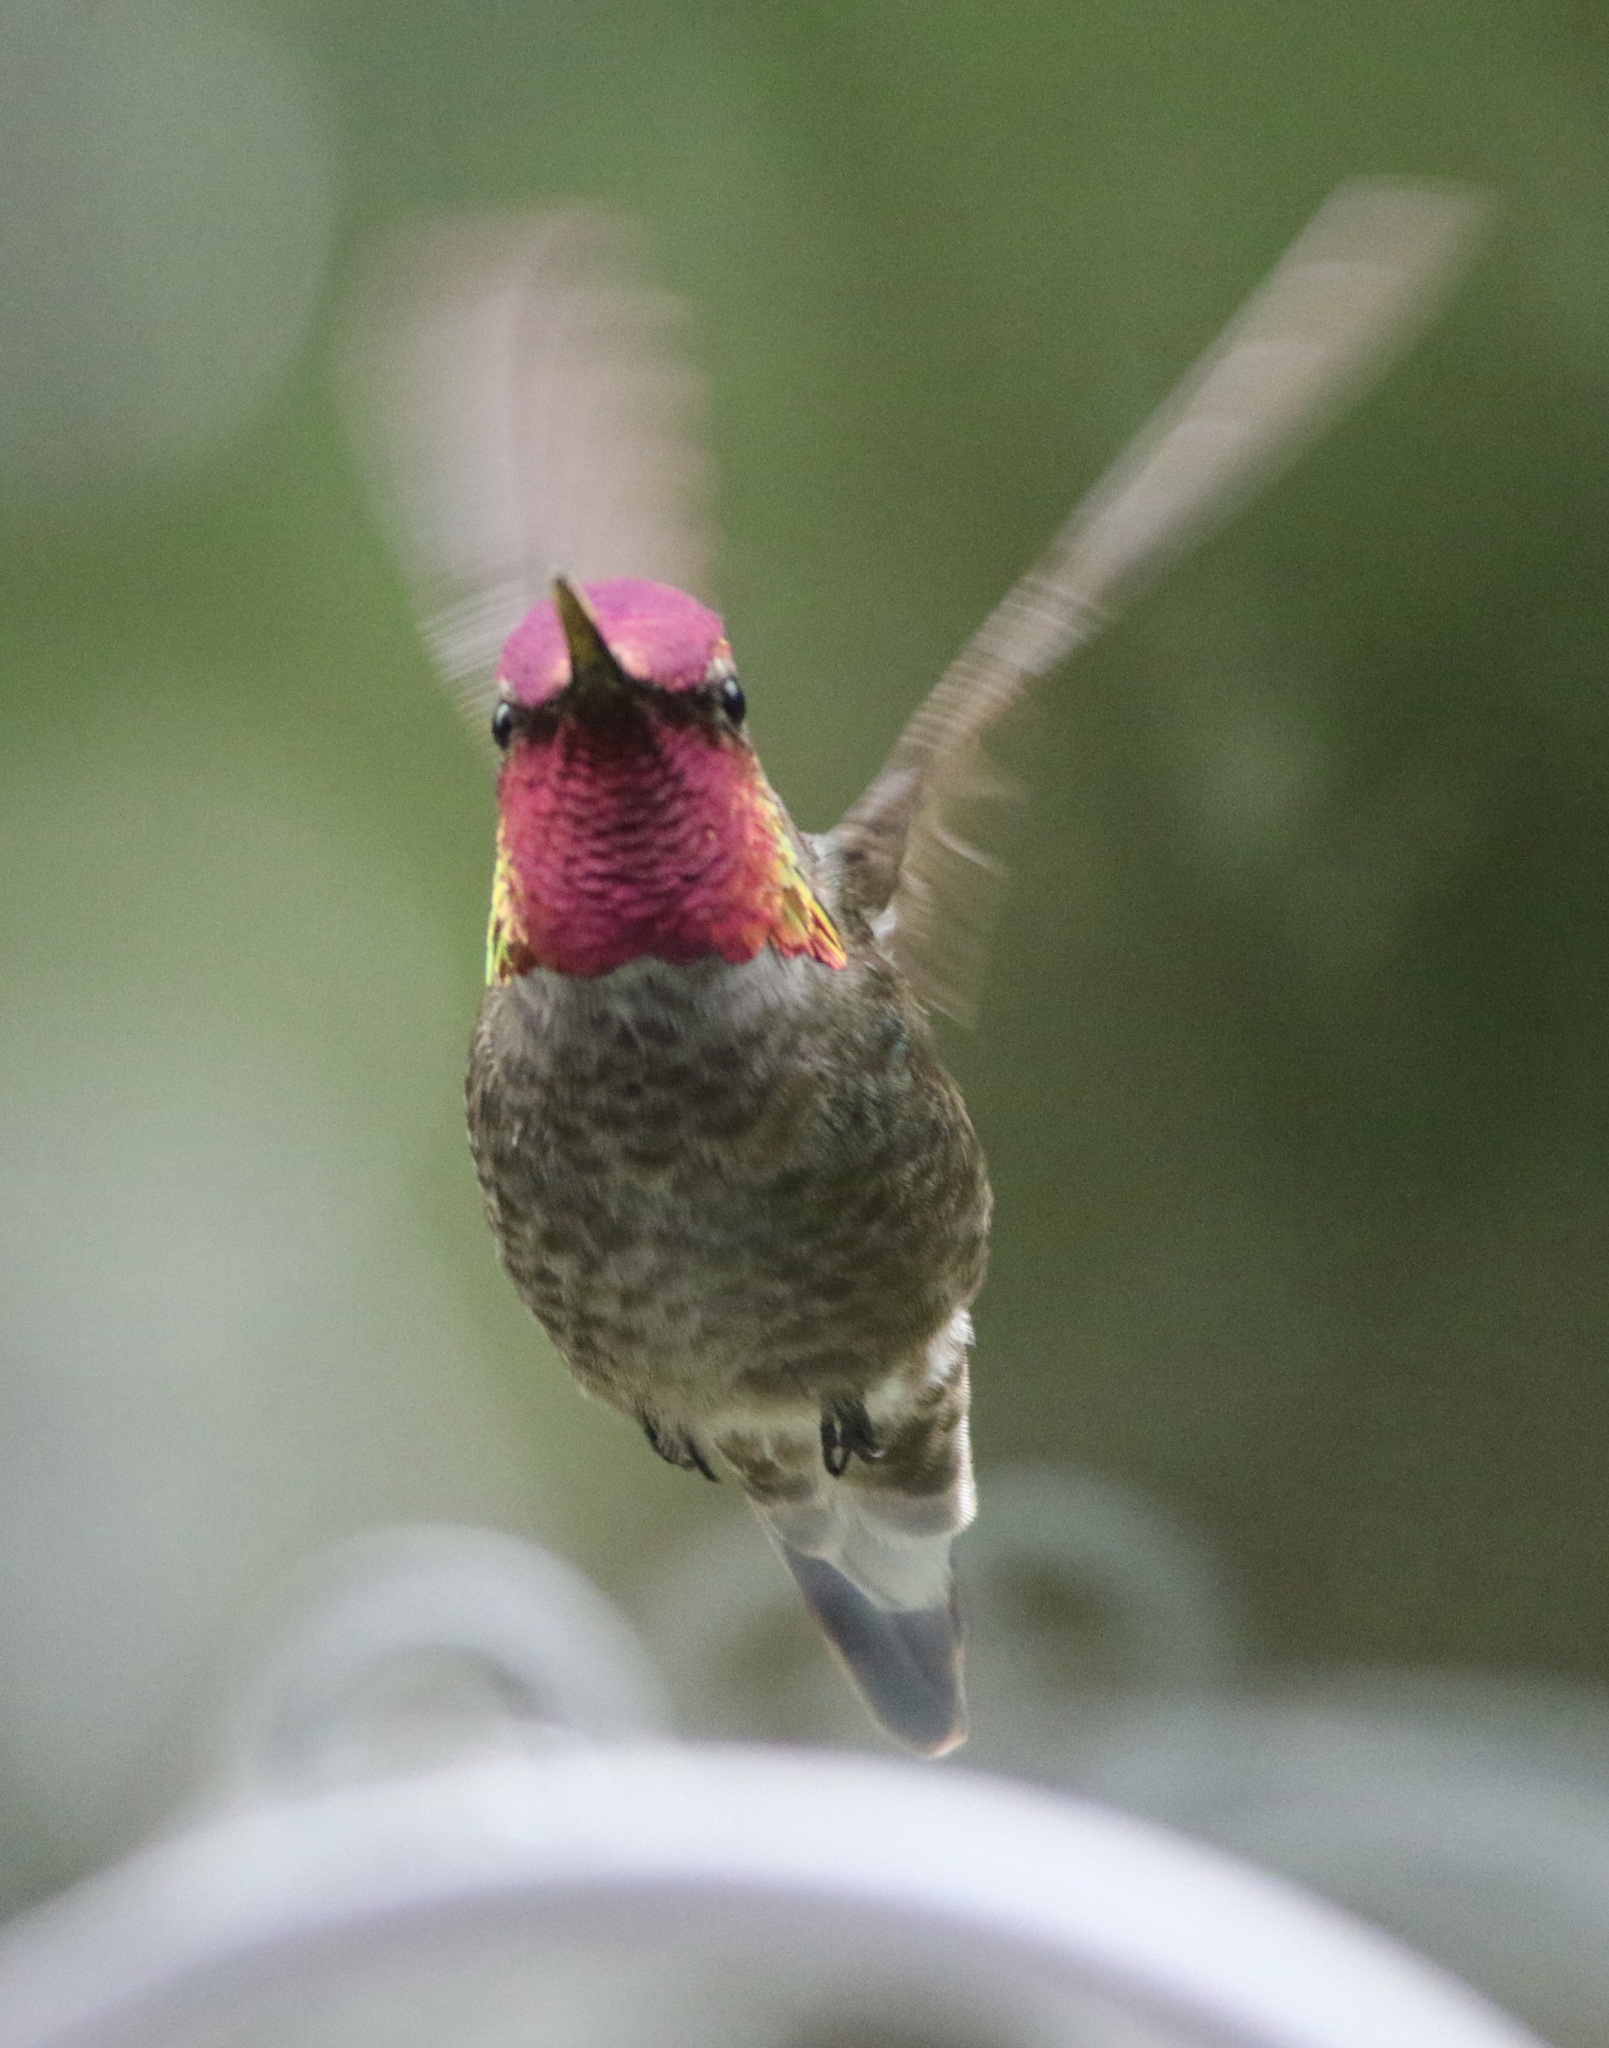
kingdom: Animalia
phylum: Chordata
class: Aves
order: Apodiformes
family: Trochilidae
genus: Calypte
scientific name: Calypte anna
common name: Anna's hummingbird
